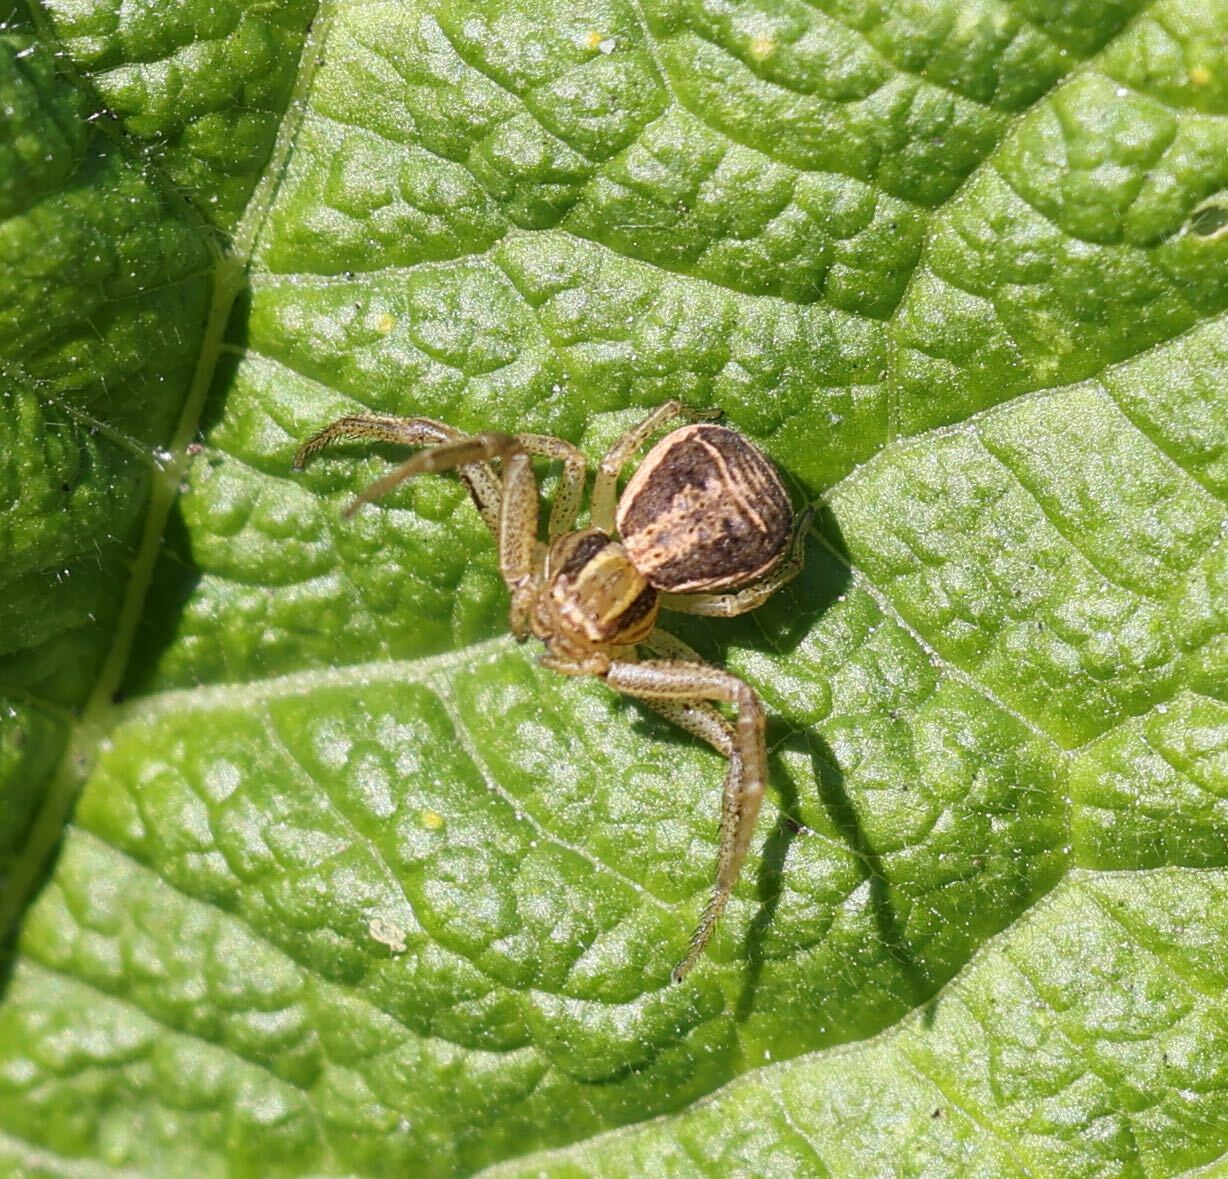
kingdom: Animalia
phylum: Arthropoda
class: Arachnida
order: Araneae
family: Thomisidae
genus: Xysticus
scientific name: Xysticus ulmi
